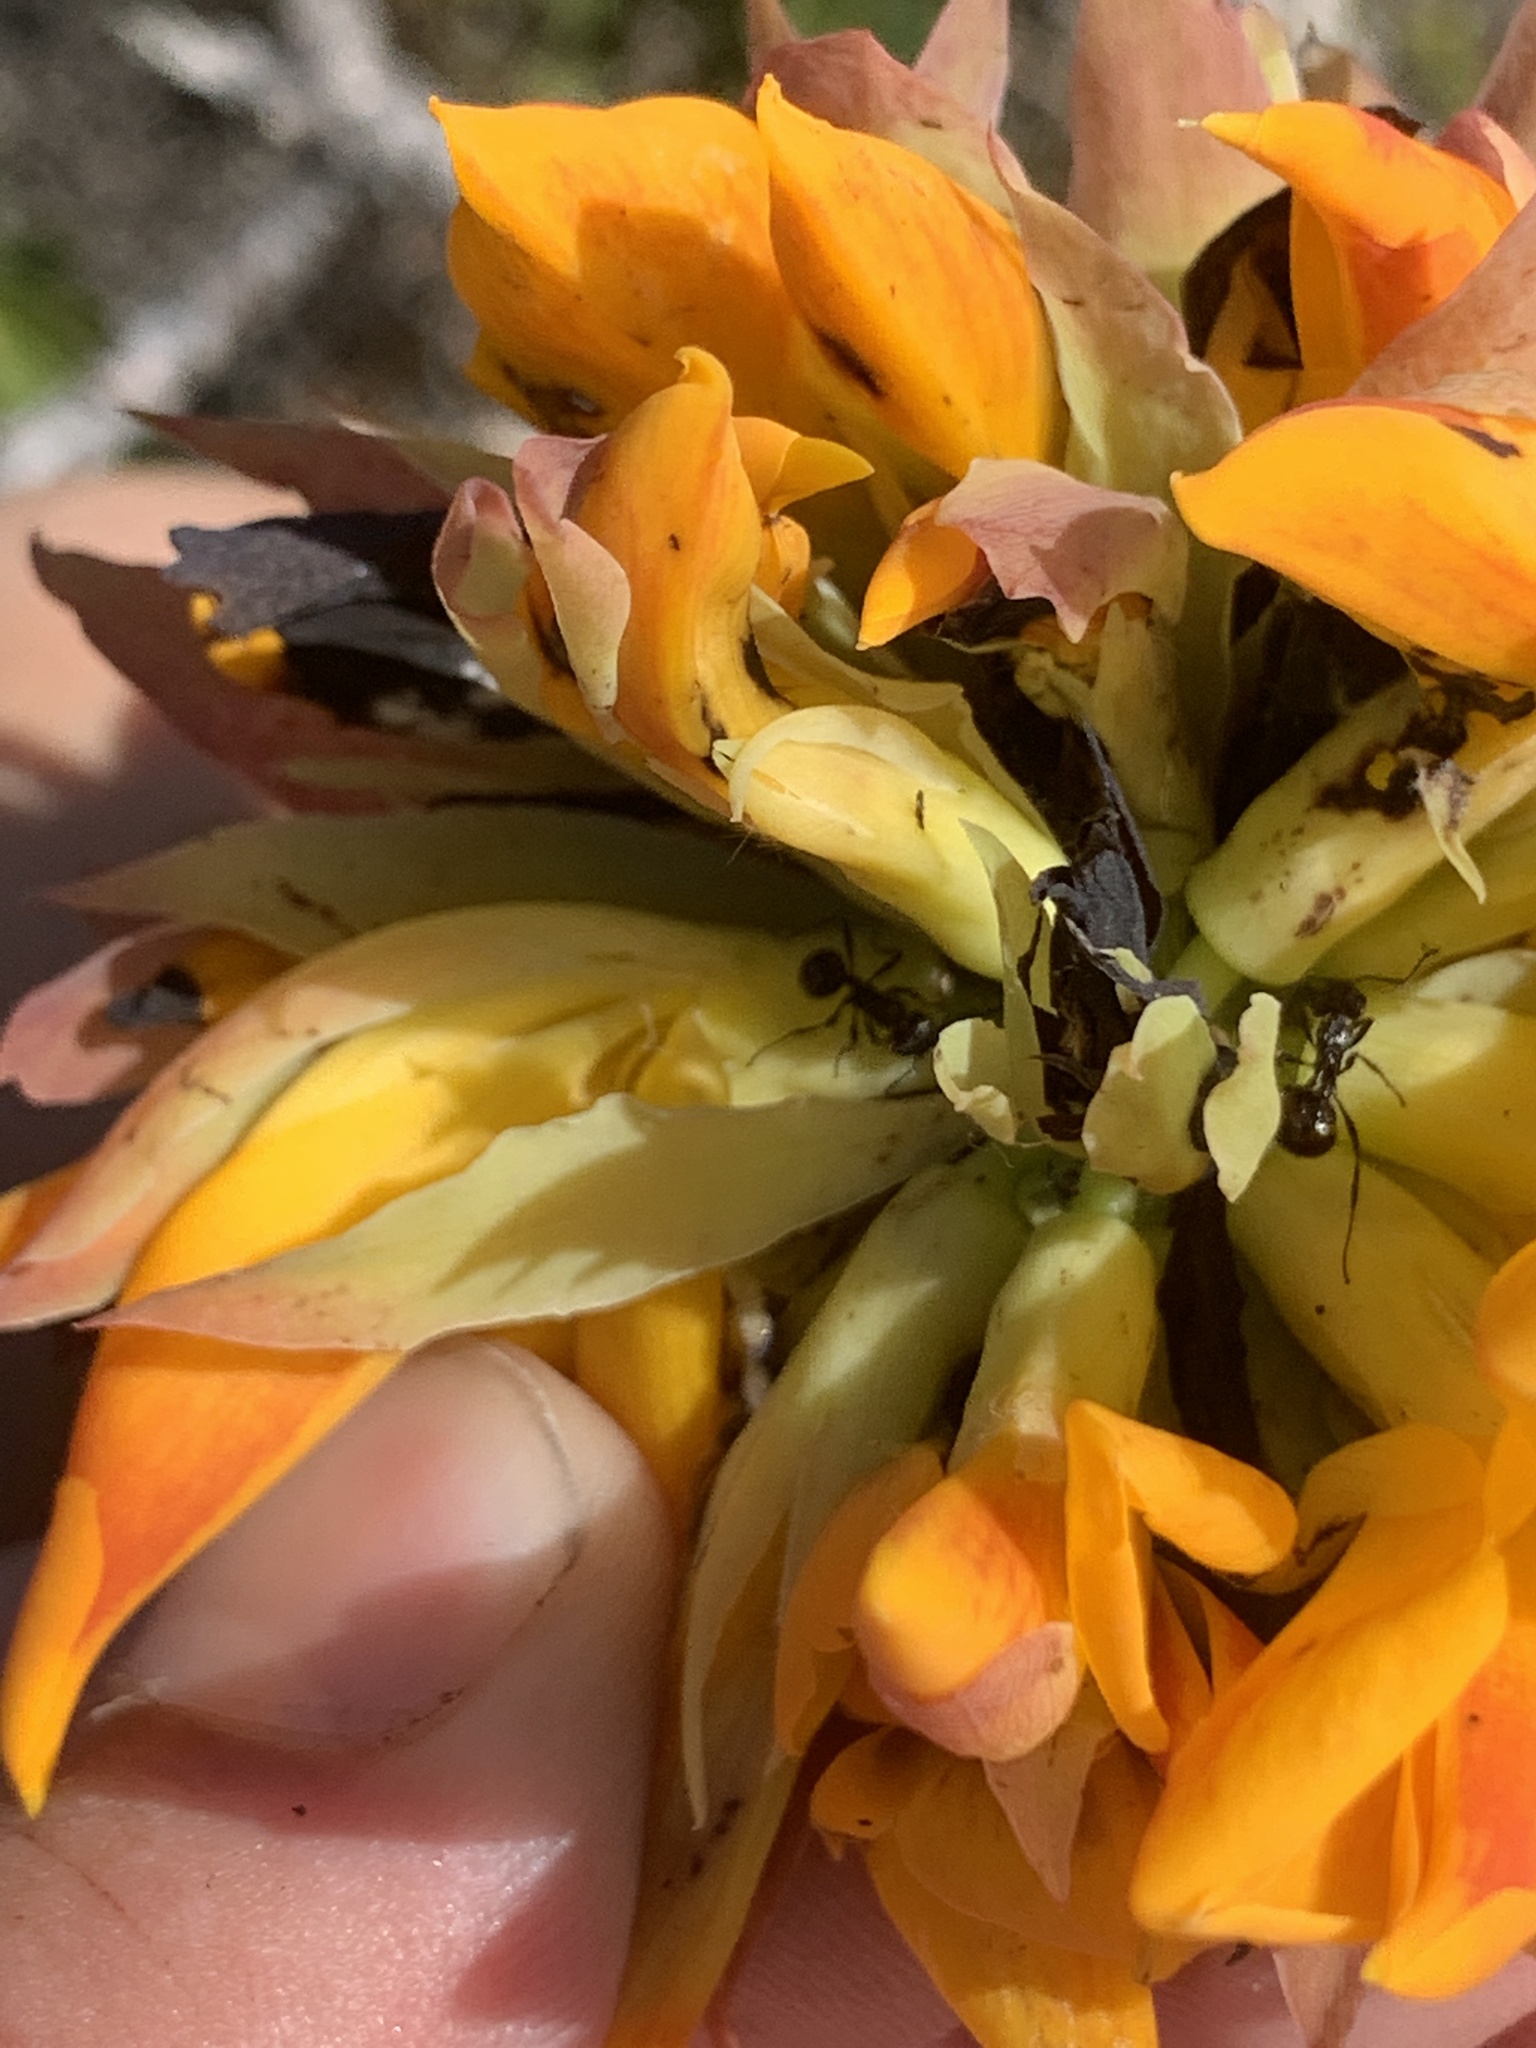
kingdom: Animalia
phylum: Arthropoda
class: Insecta
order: Hymenoptera
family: Formicidae
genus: Myrmicaria
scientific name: Myrmicaria nigra
